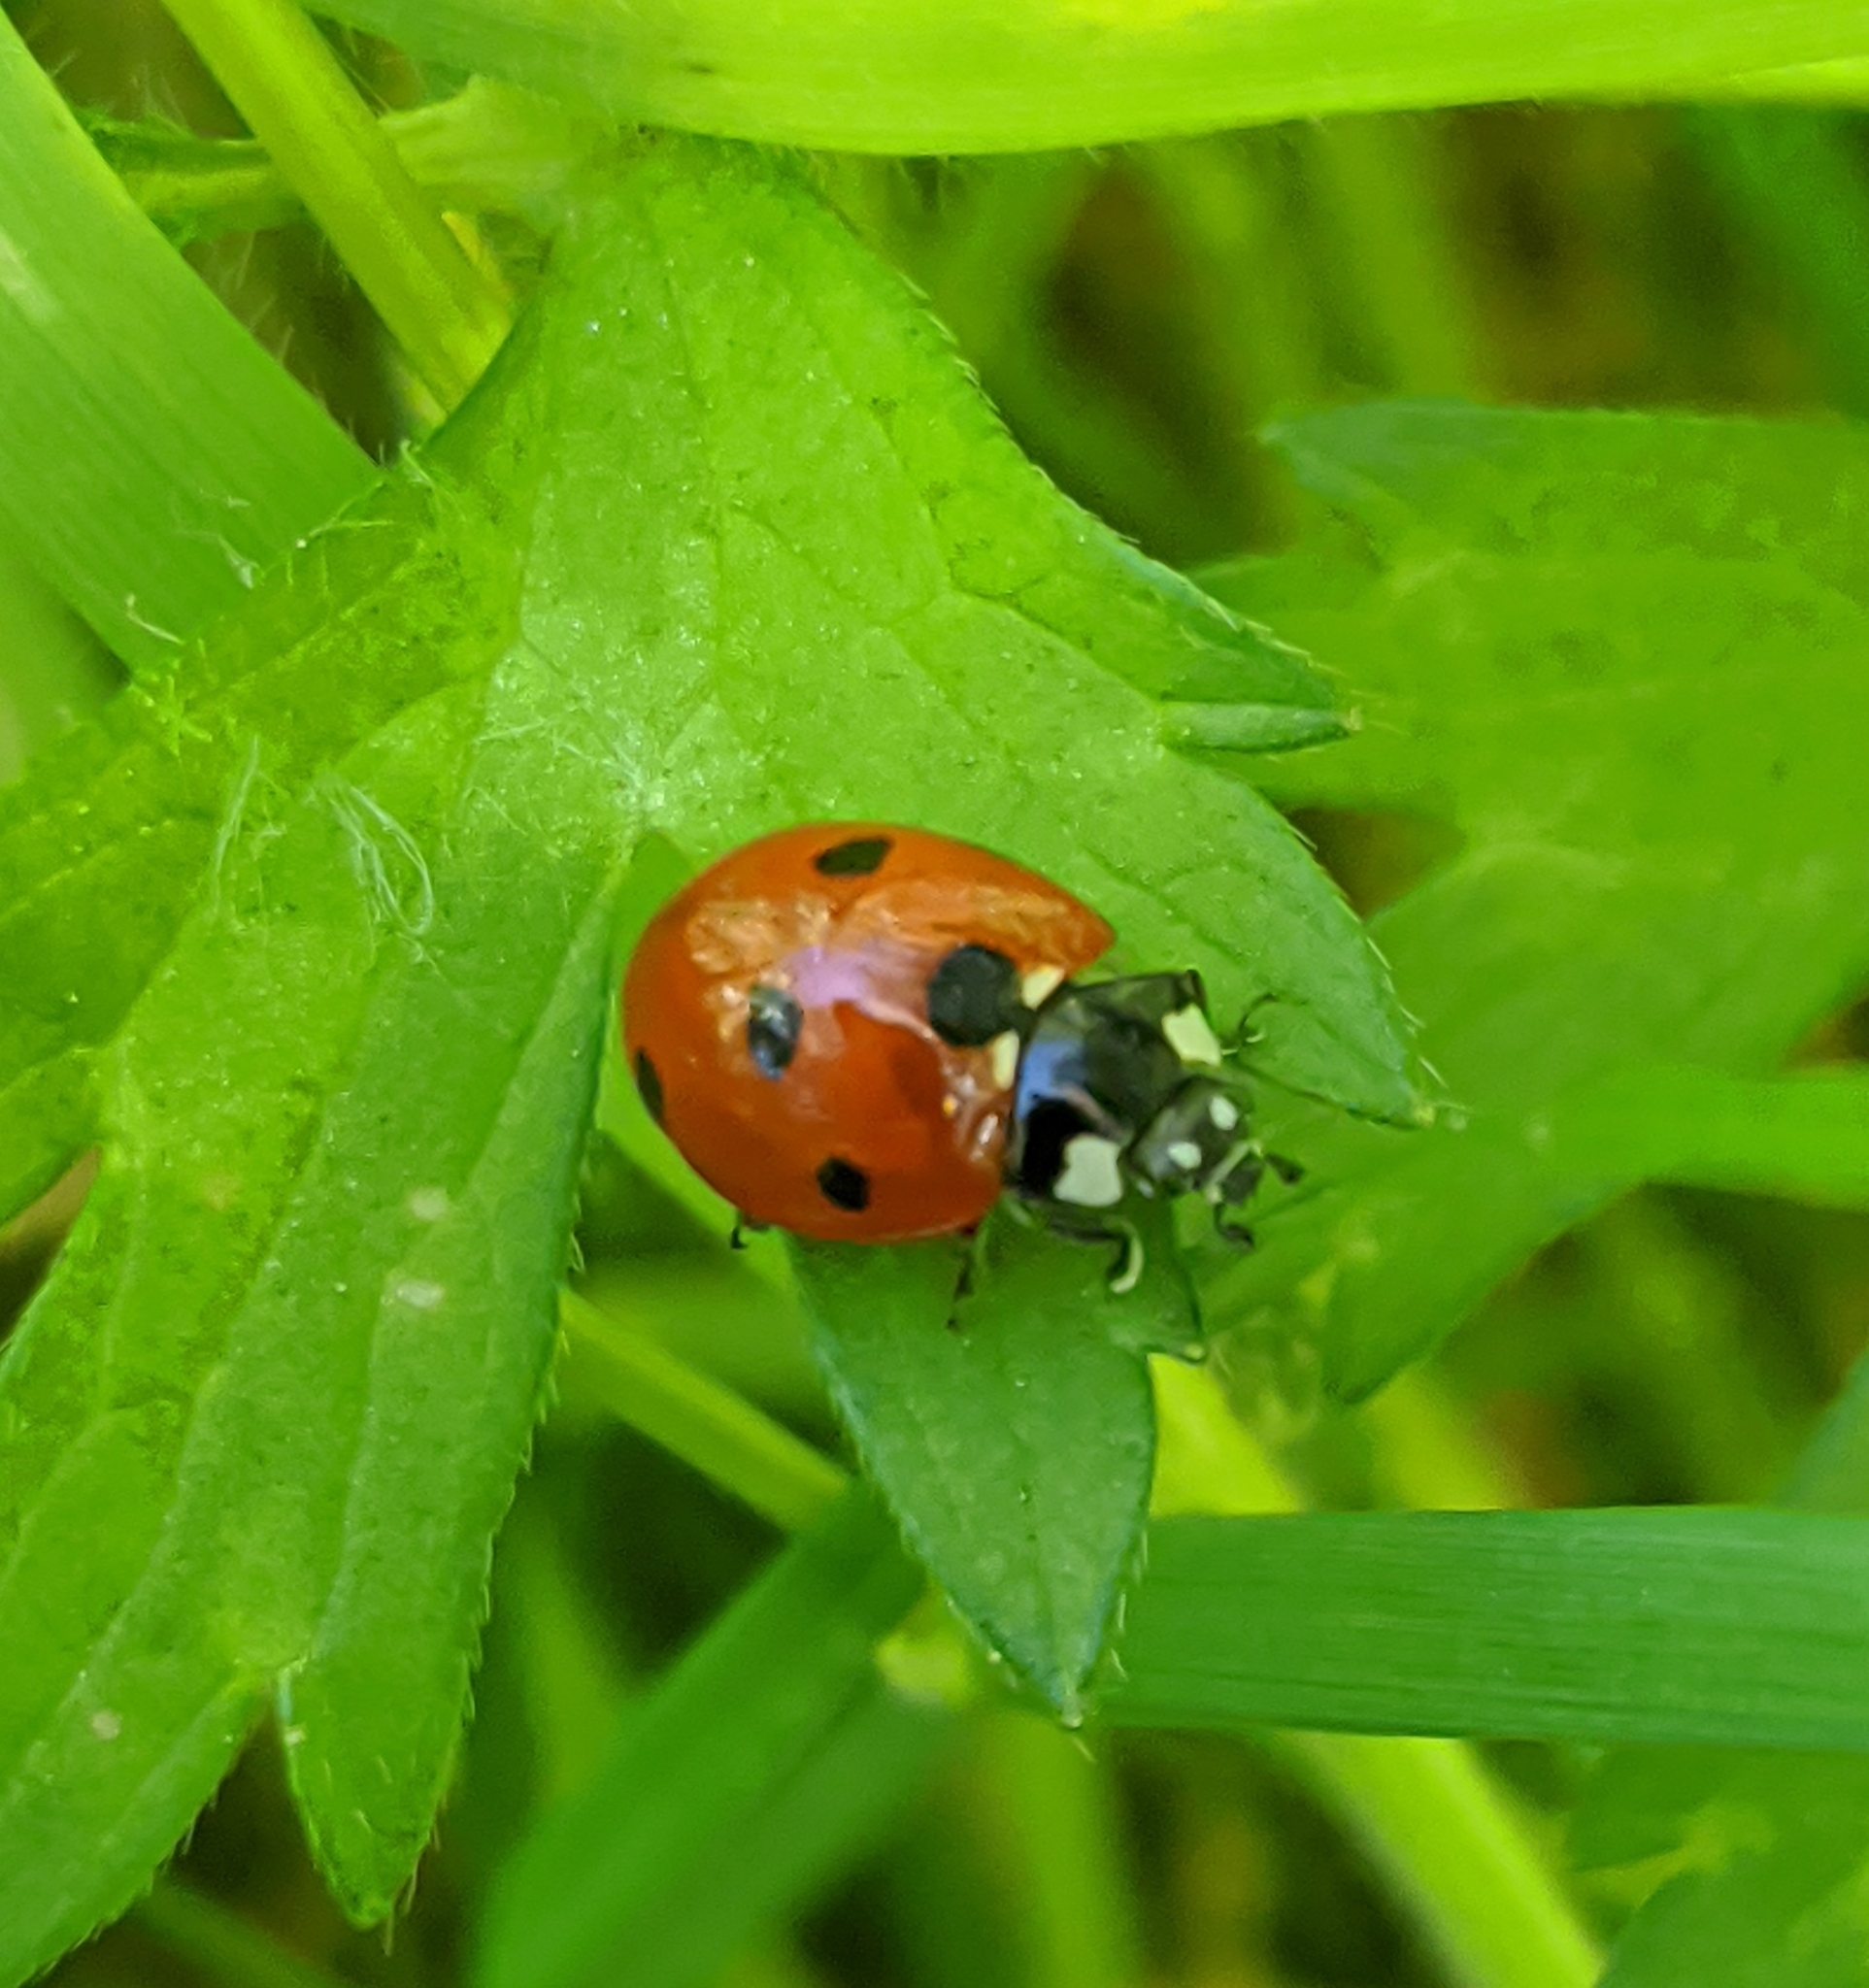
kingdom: Animalia
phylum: Arthropoda
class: Insecta
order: Coleoptera
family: Coccinellidae
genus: Coccinella
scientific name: Coccinella septempunctata
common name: Sevenspotted lady beetle
